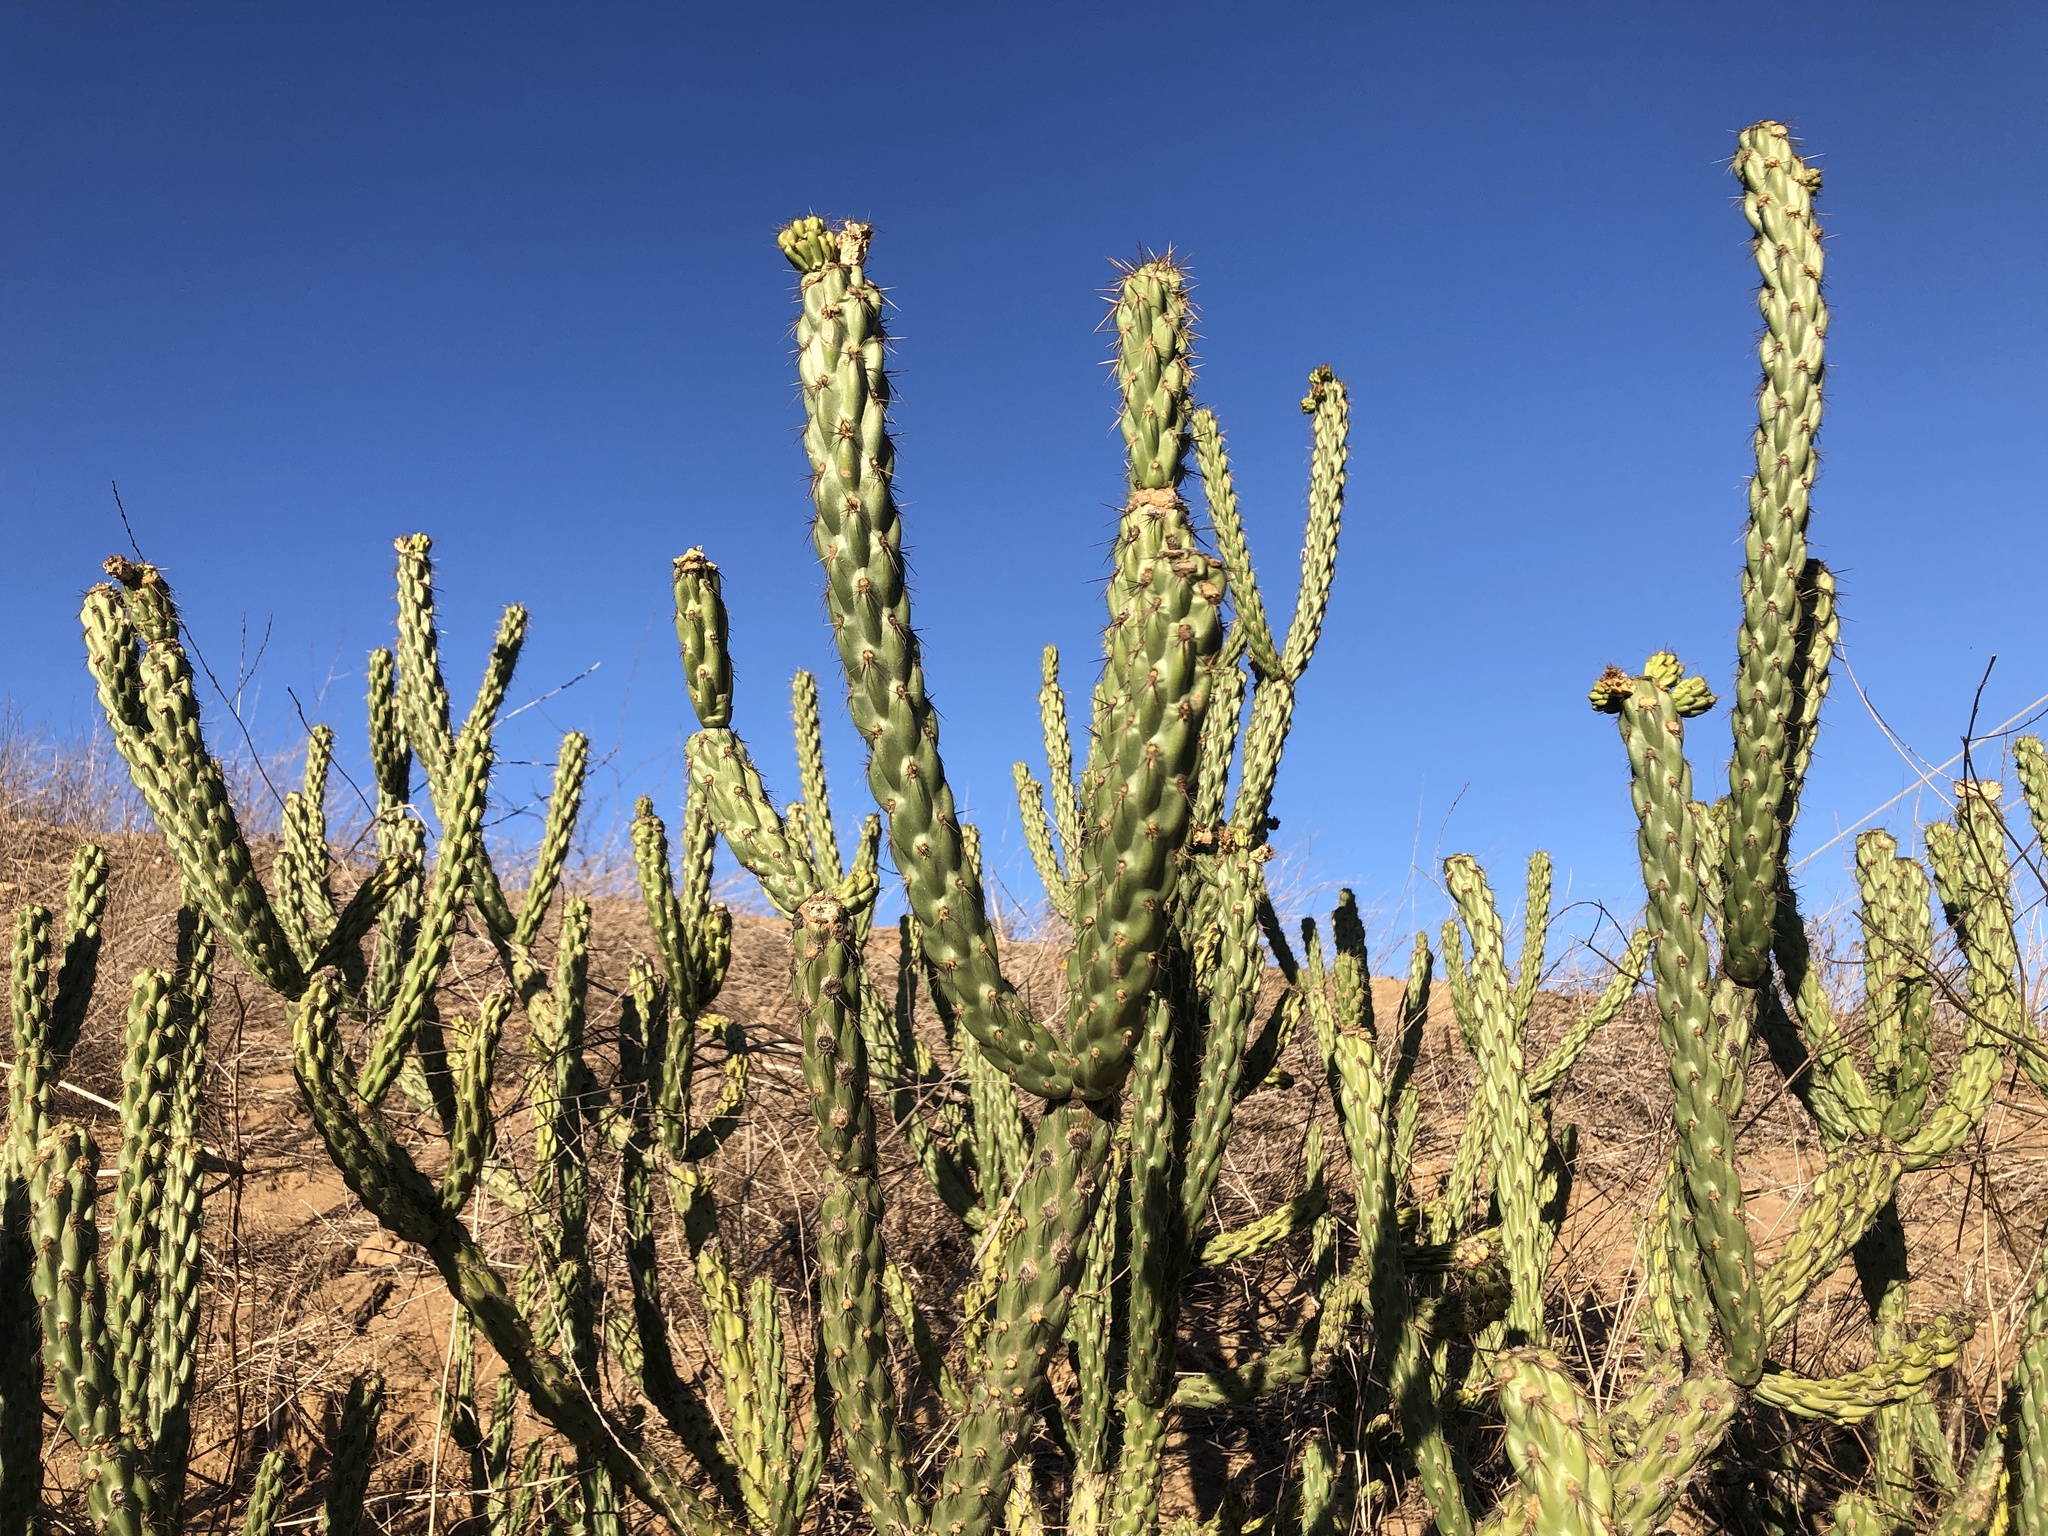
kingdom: Plantae
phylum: Tracheophyta
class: Magnoliopsida
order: Caryophyllales
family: Cactaceae
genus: Cylindropuntia
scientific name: Cylindropuntia bernardina
